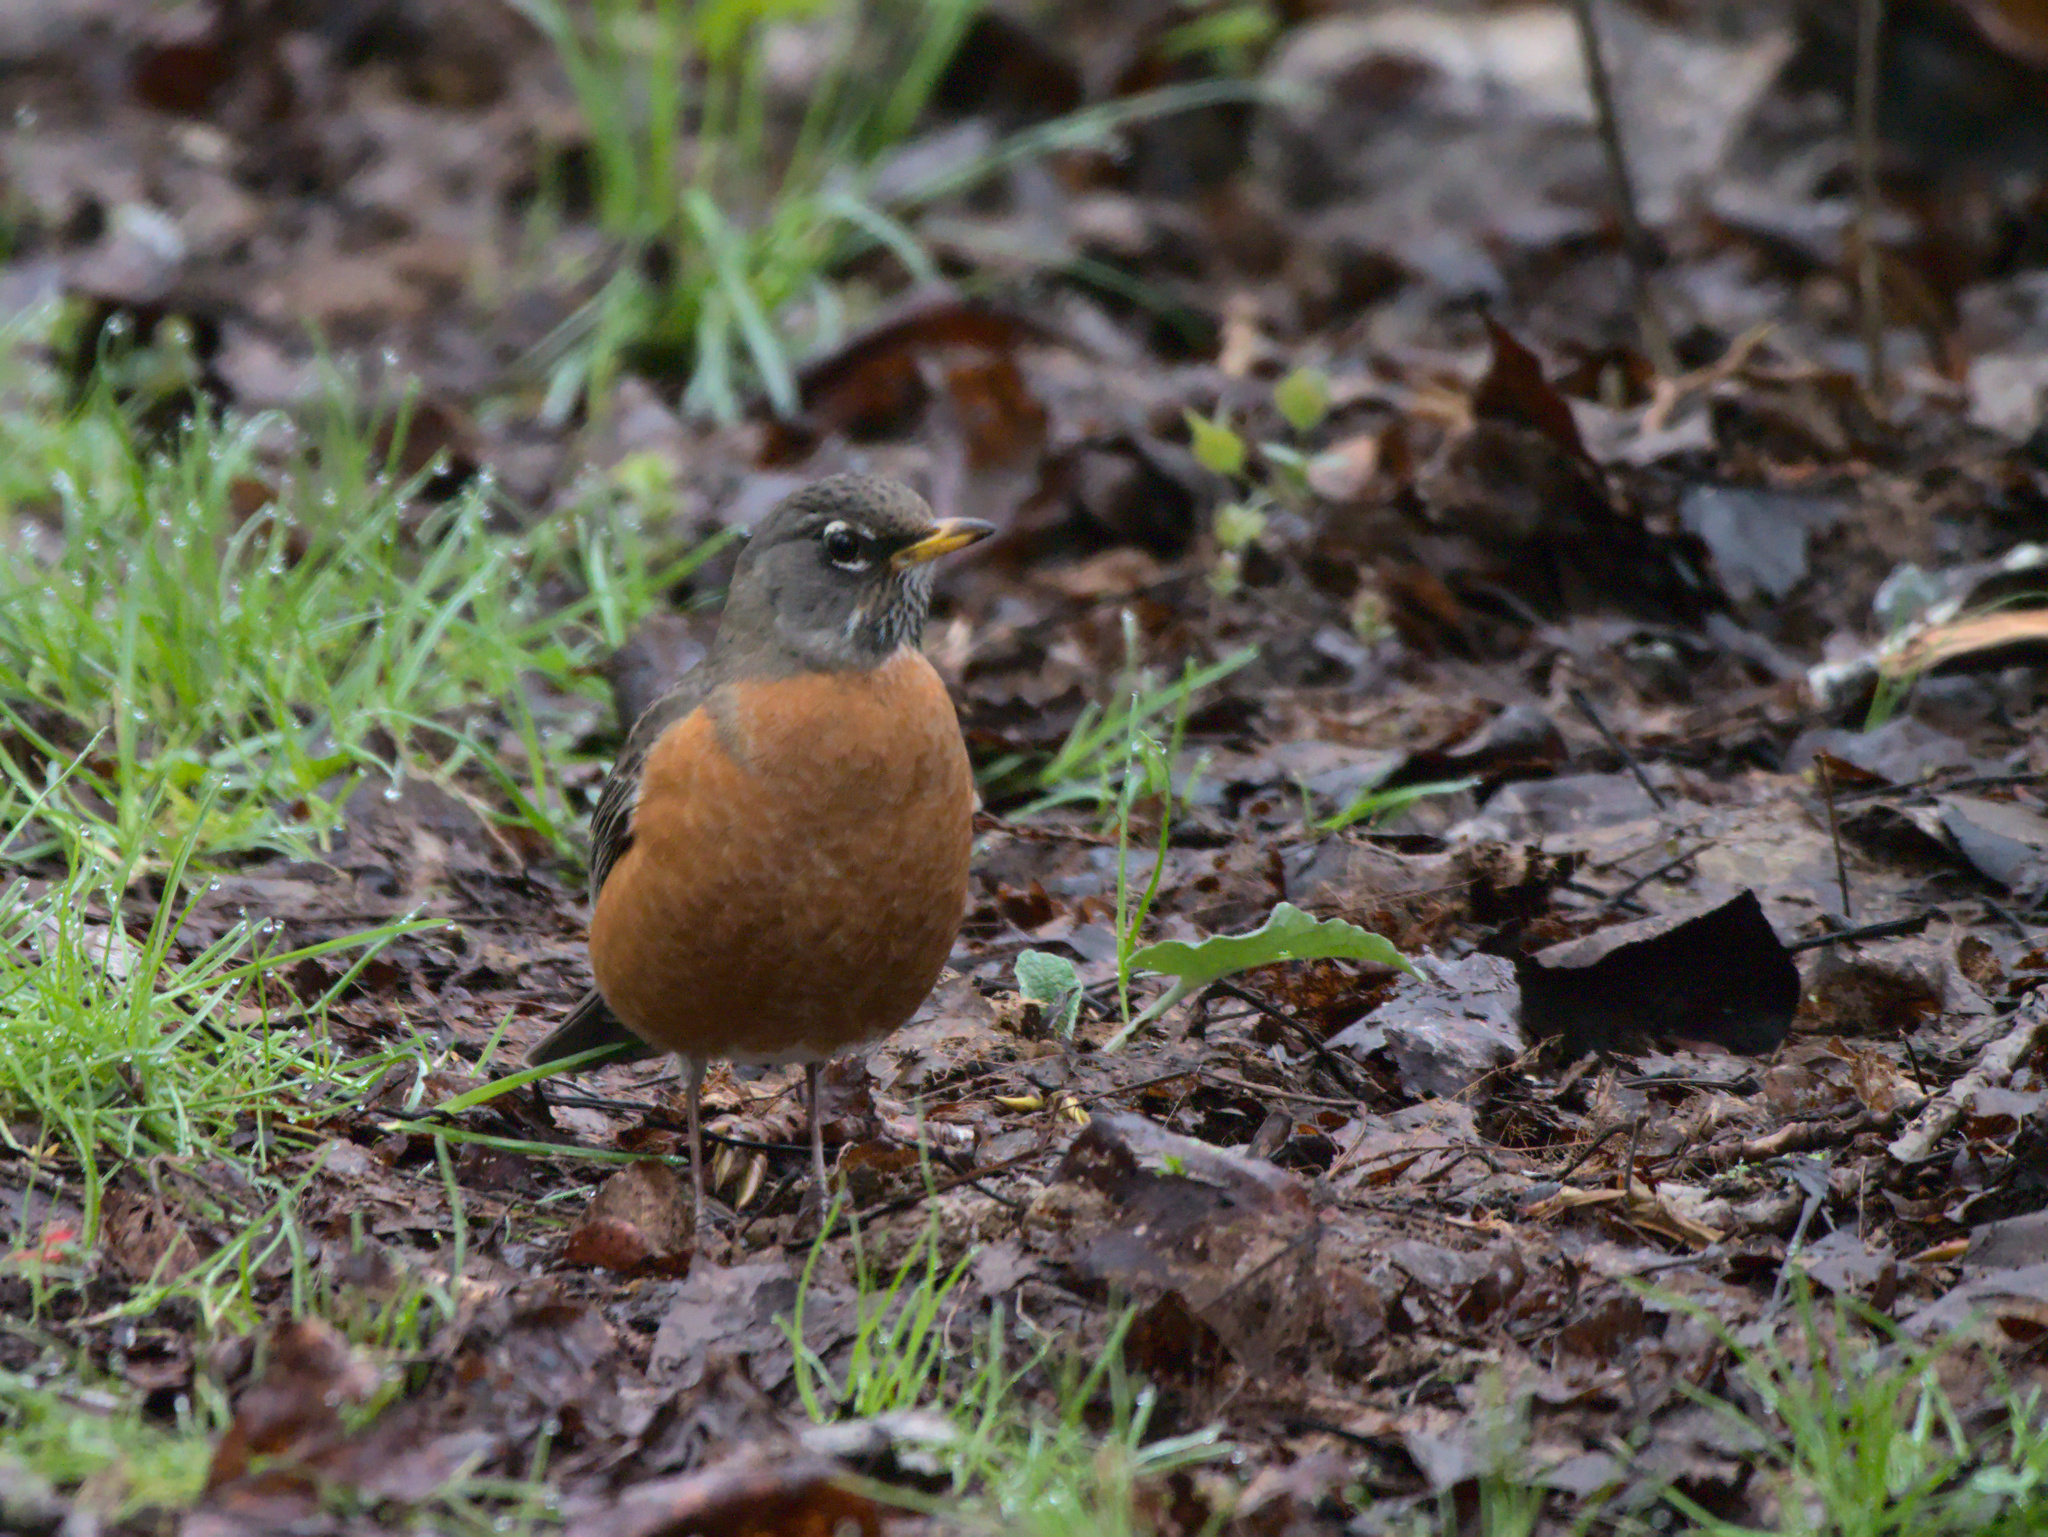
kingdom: Animalia
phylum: Chordata
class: Aves
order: Passeriformes
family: Turdidae
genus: Turdus
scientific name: Turdus migratorius
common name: American robin
